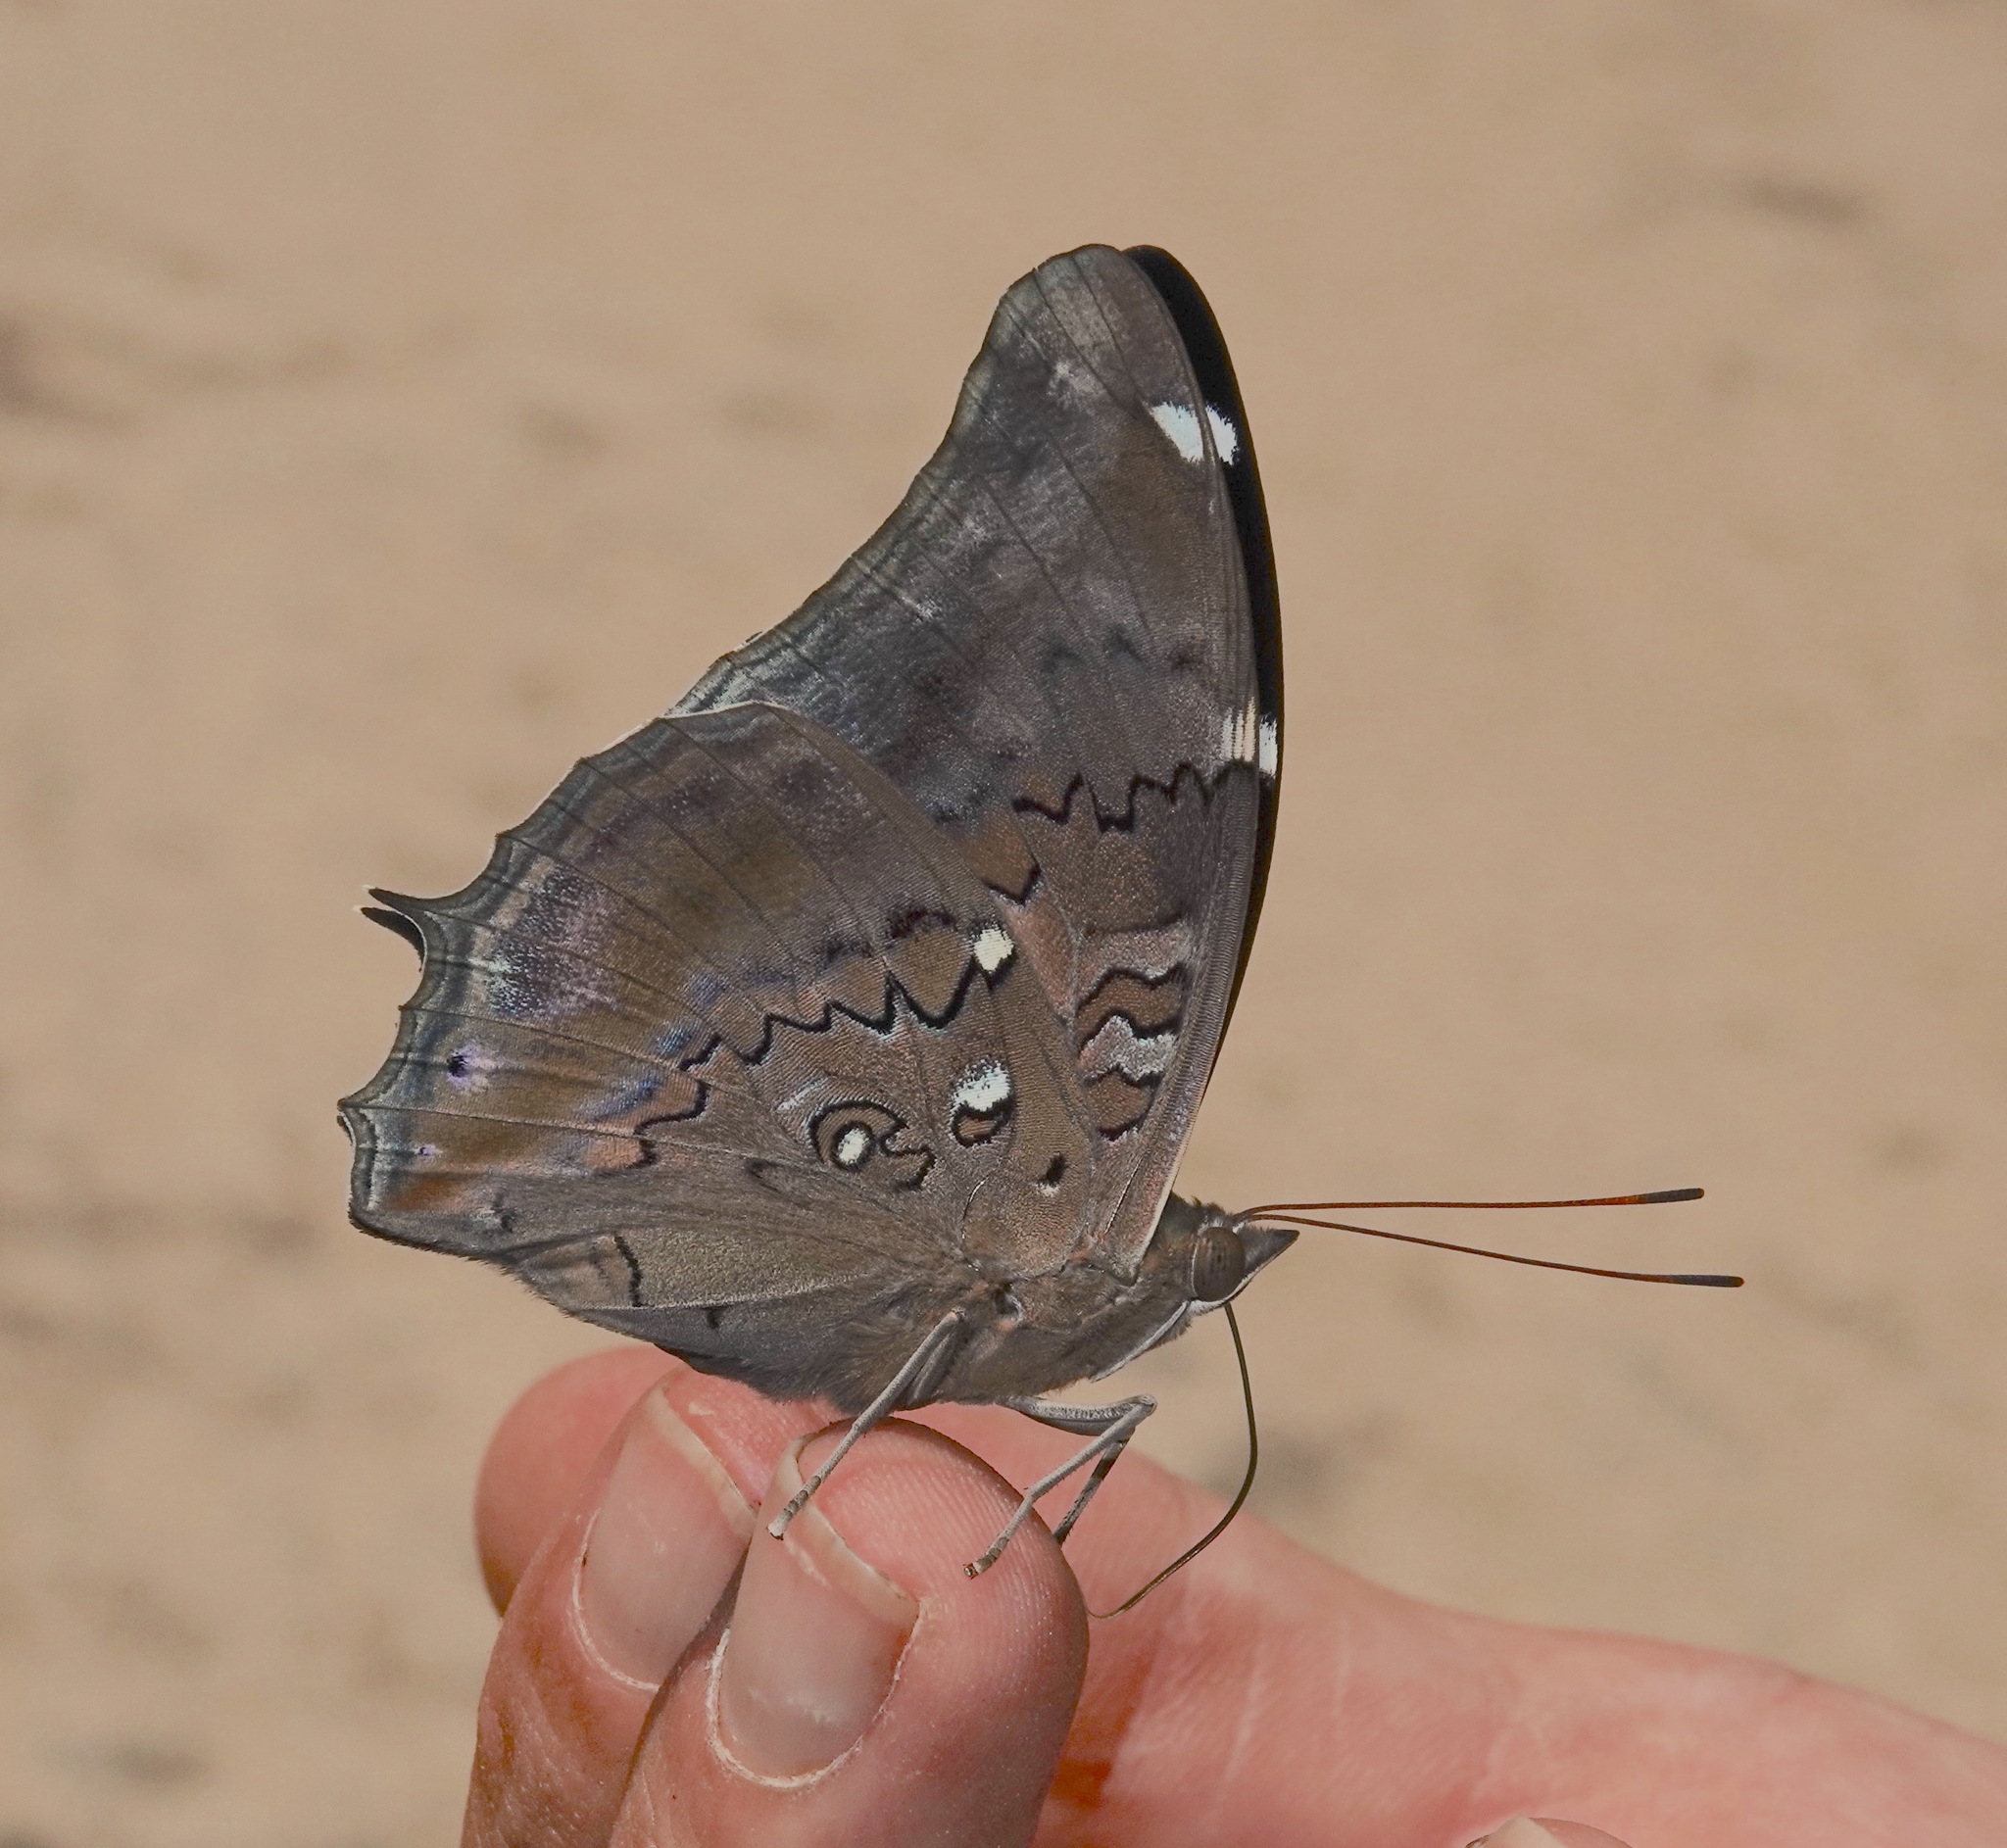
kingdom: Animalia
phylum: Arthropoda
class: Insecta
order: Lepidoptera
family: Nymphalidae
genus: Coea
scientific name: Coea acheronta
